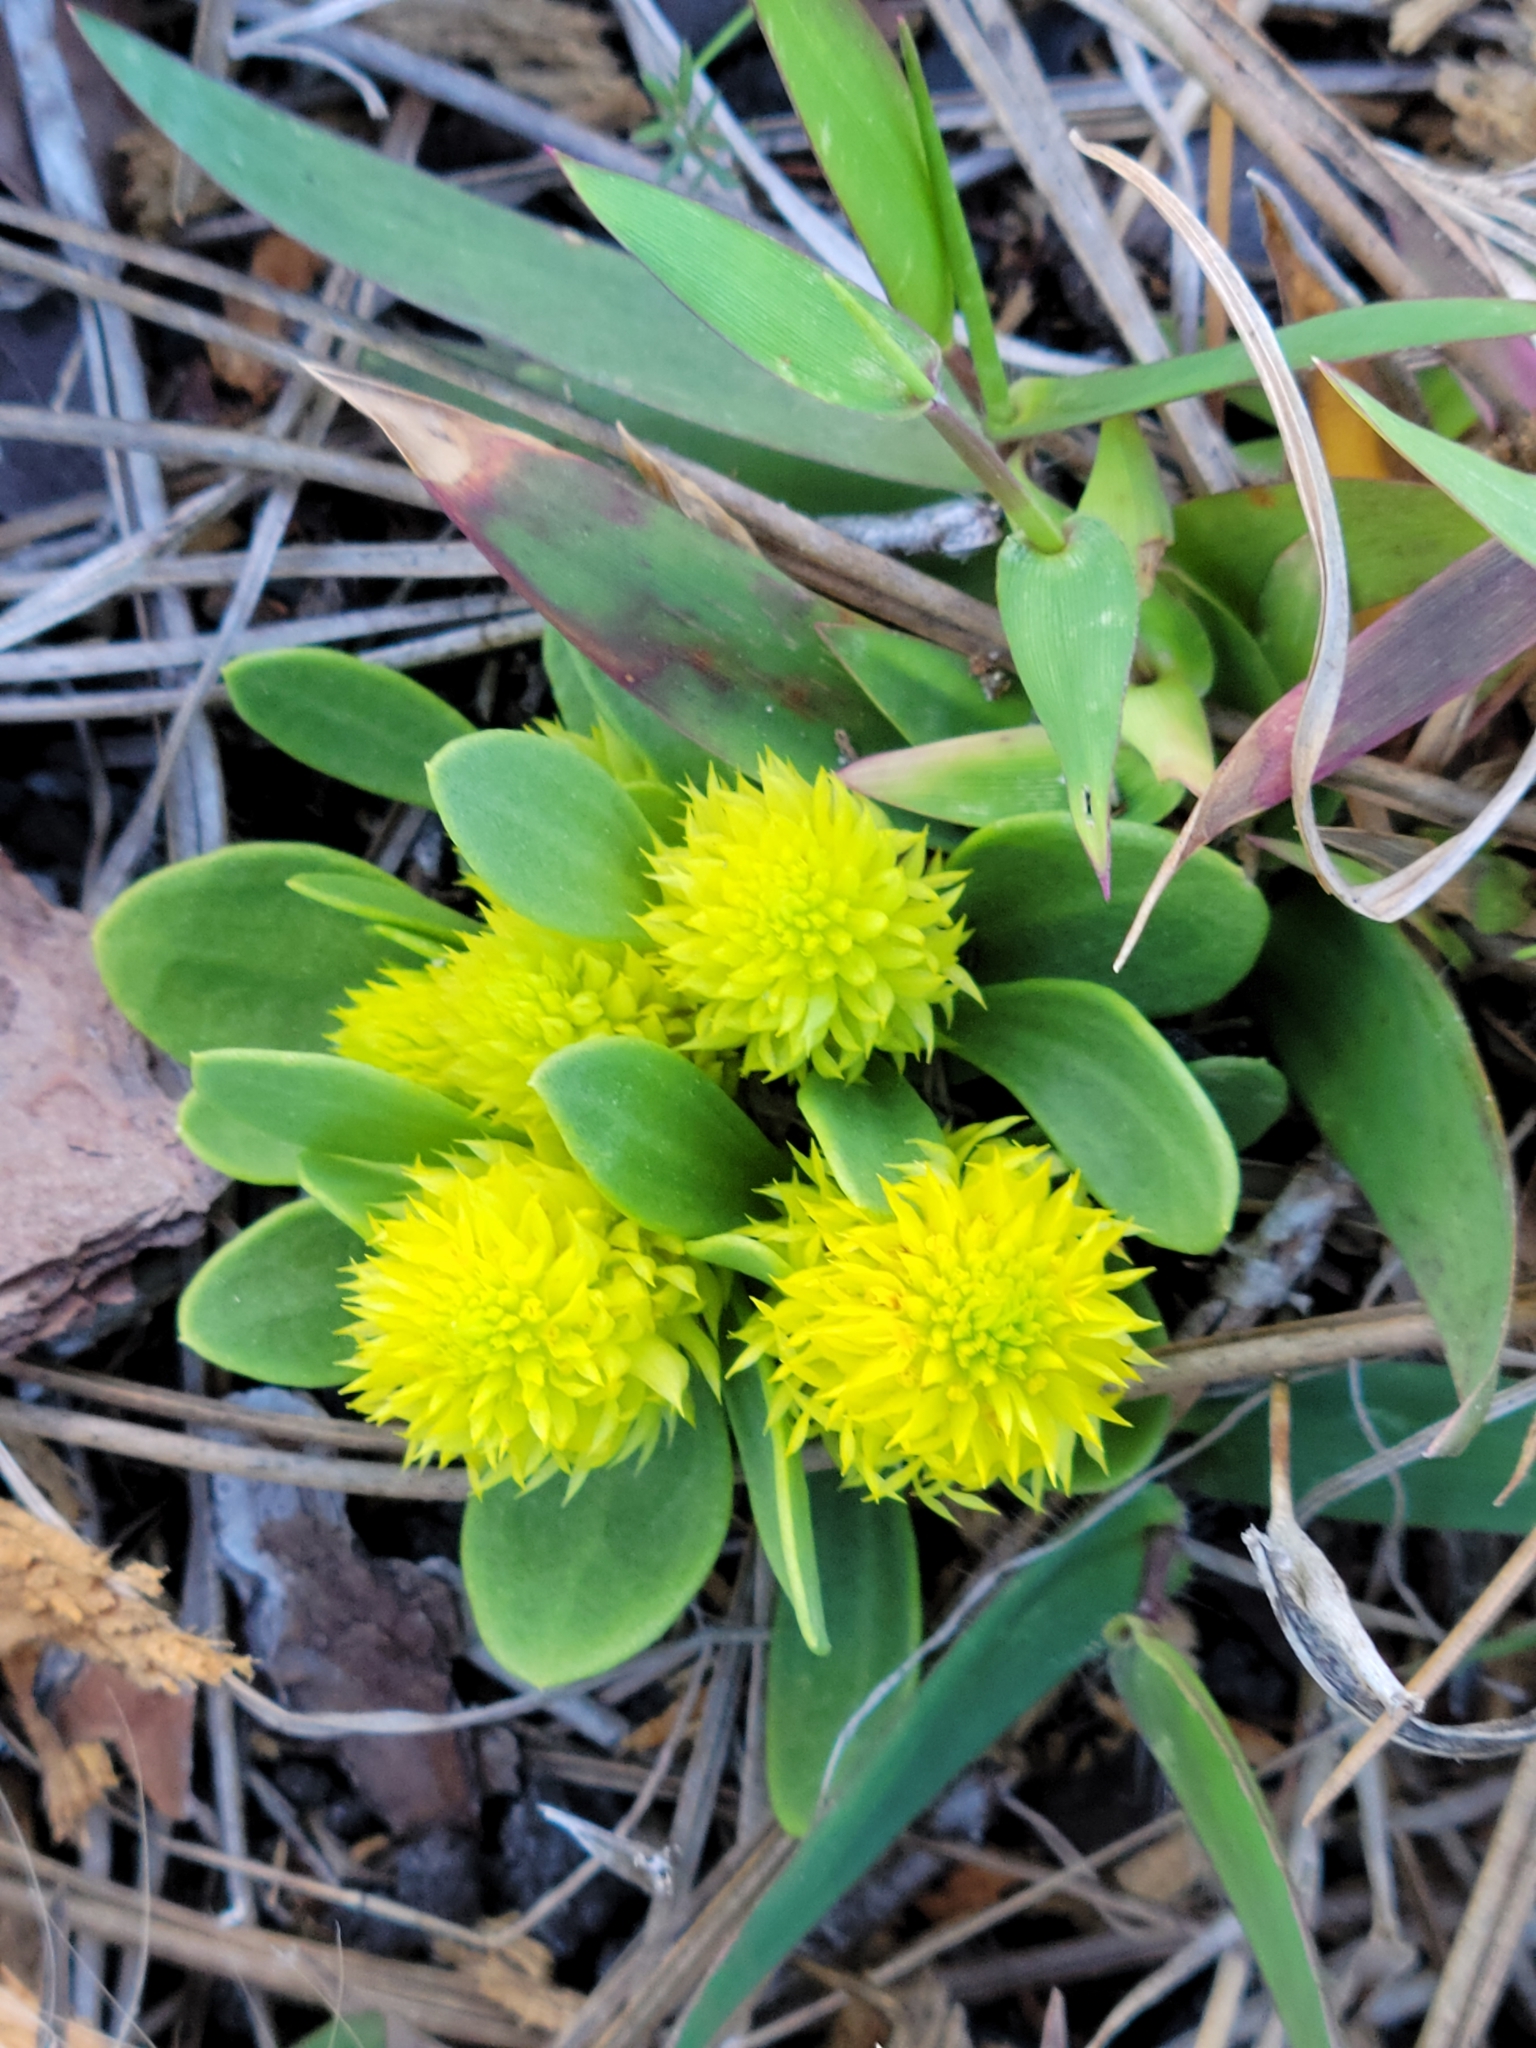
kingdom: Plantae
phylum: Tracheophyta
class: Magnoliopsida
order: Fabales
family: Polygalaceae
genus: Polygala
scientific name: Polygala nana
